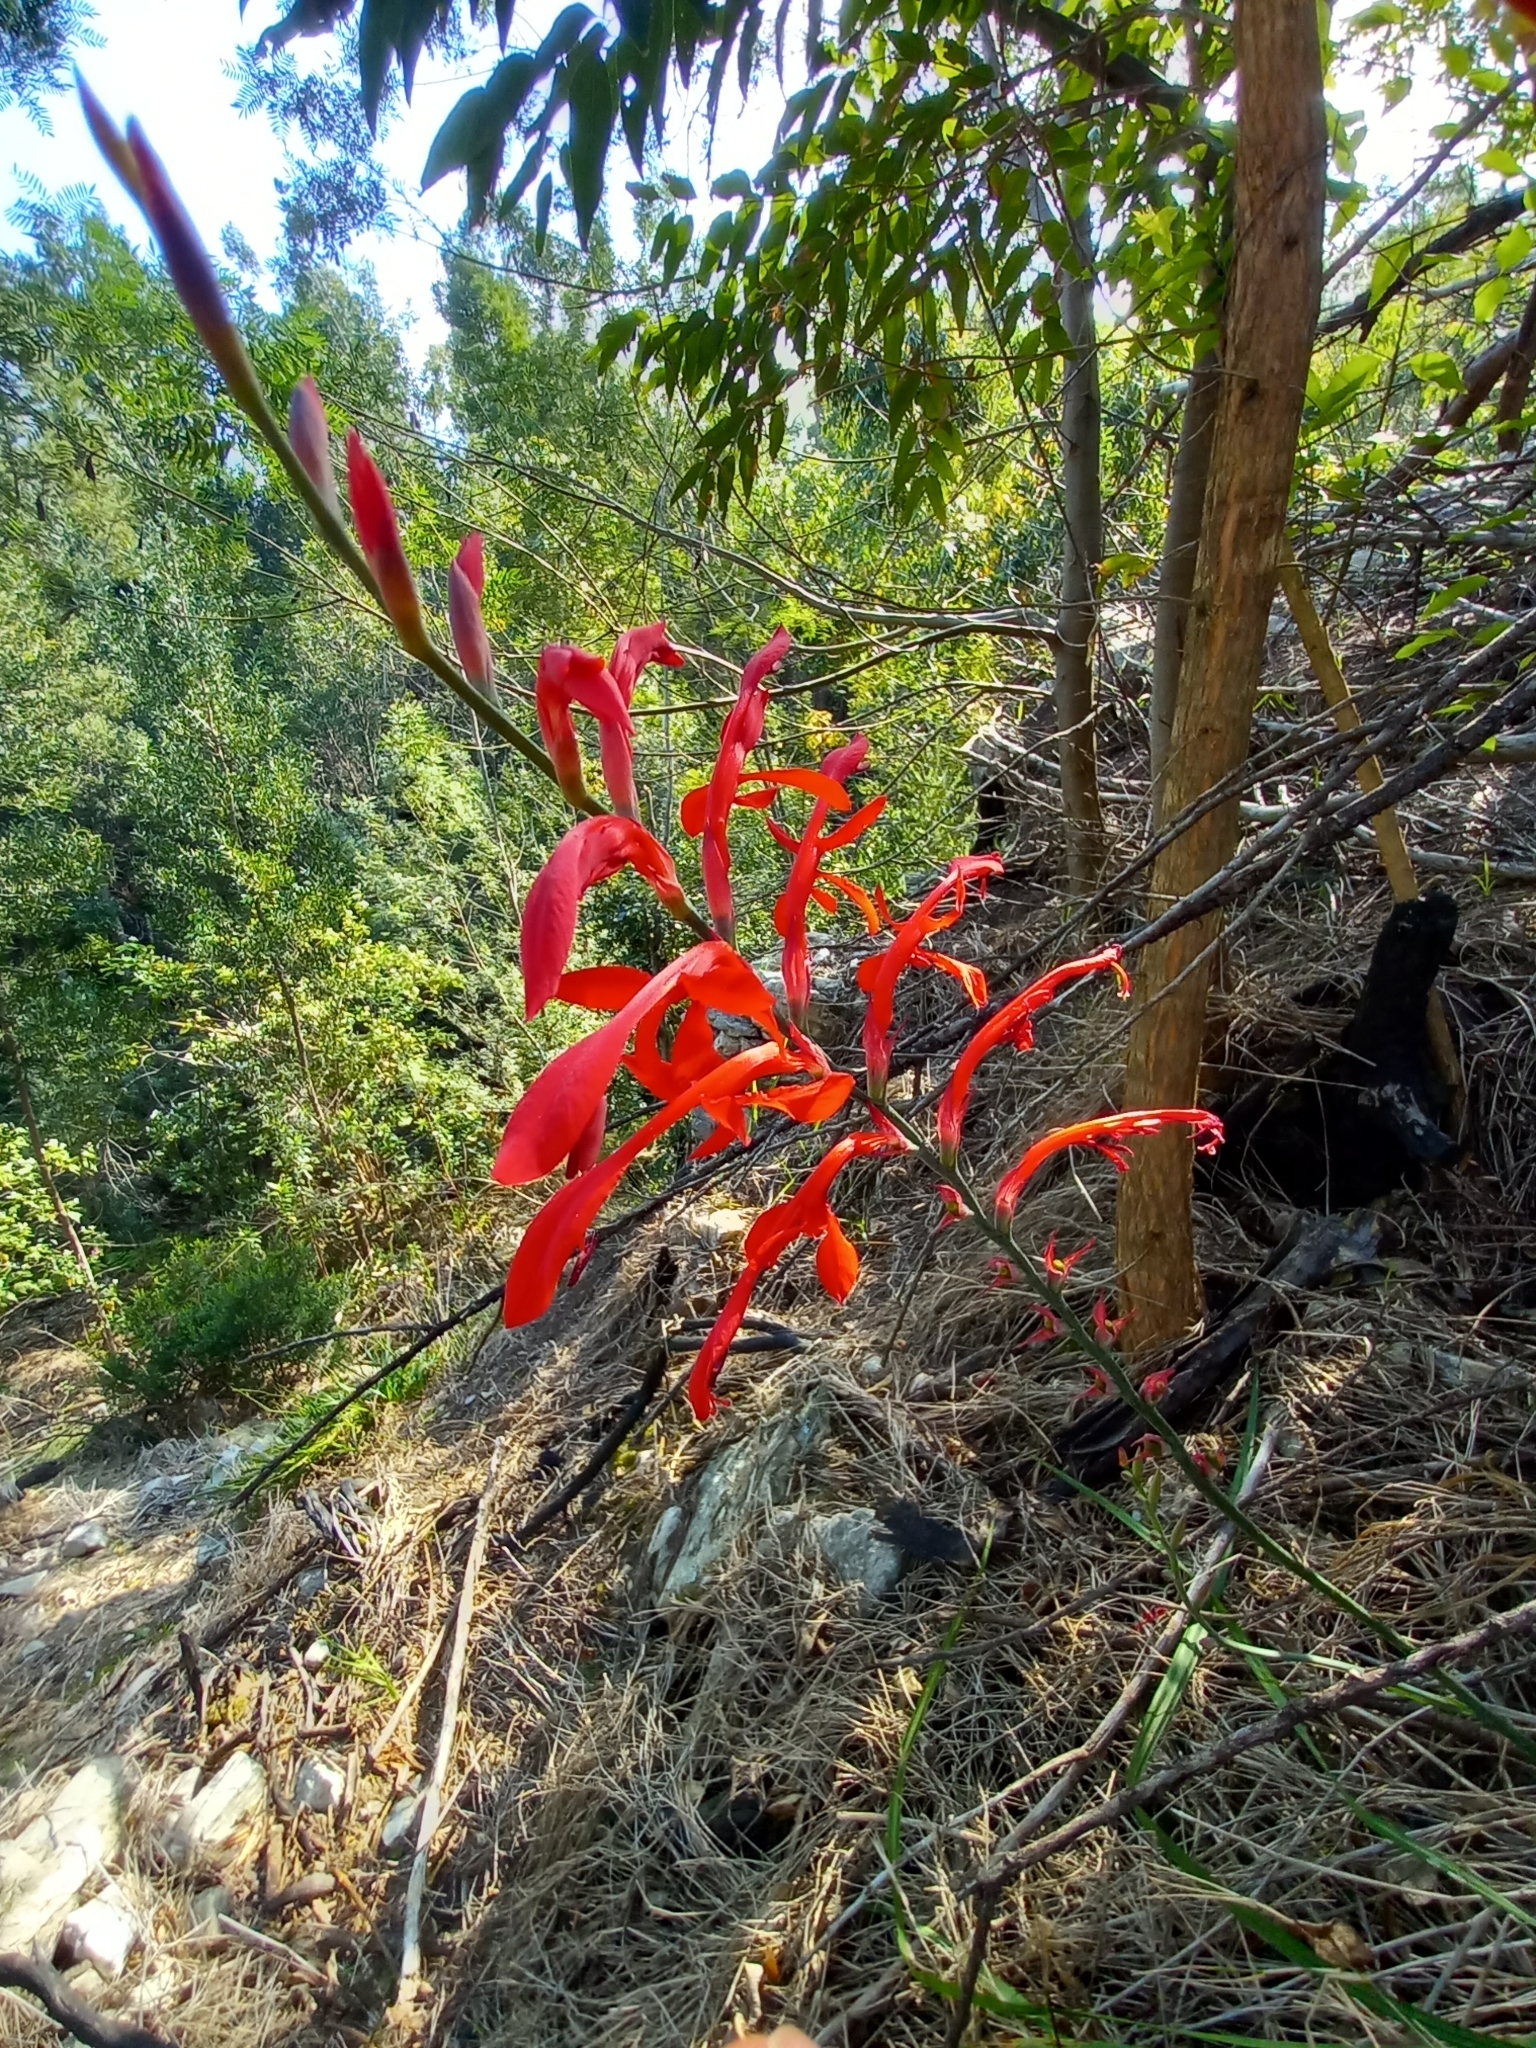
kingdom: Plantae
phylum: Tracheophyta
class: Liliopsida
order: Asparagales
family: Iridaceae
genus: Tritoniopsis
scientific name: Tritoniopsis caffra
